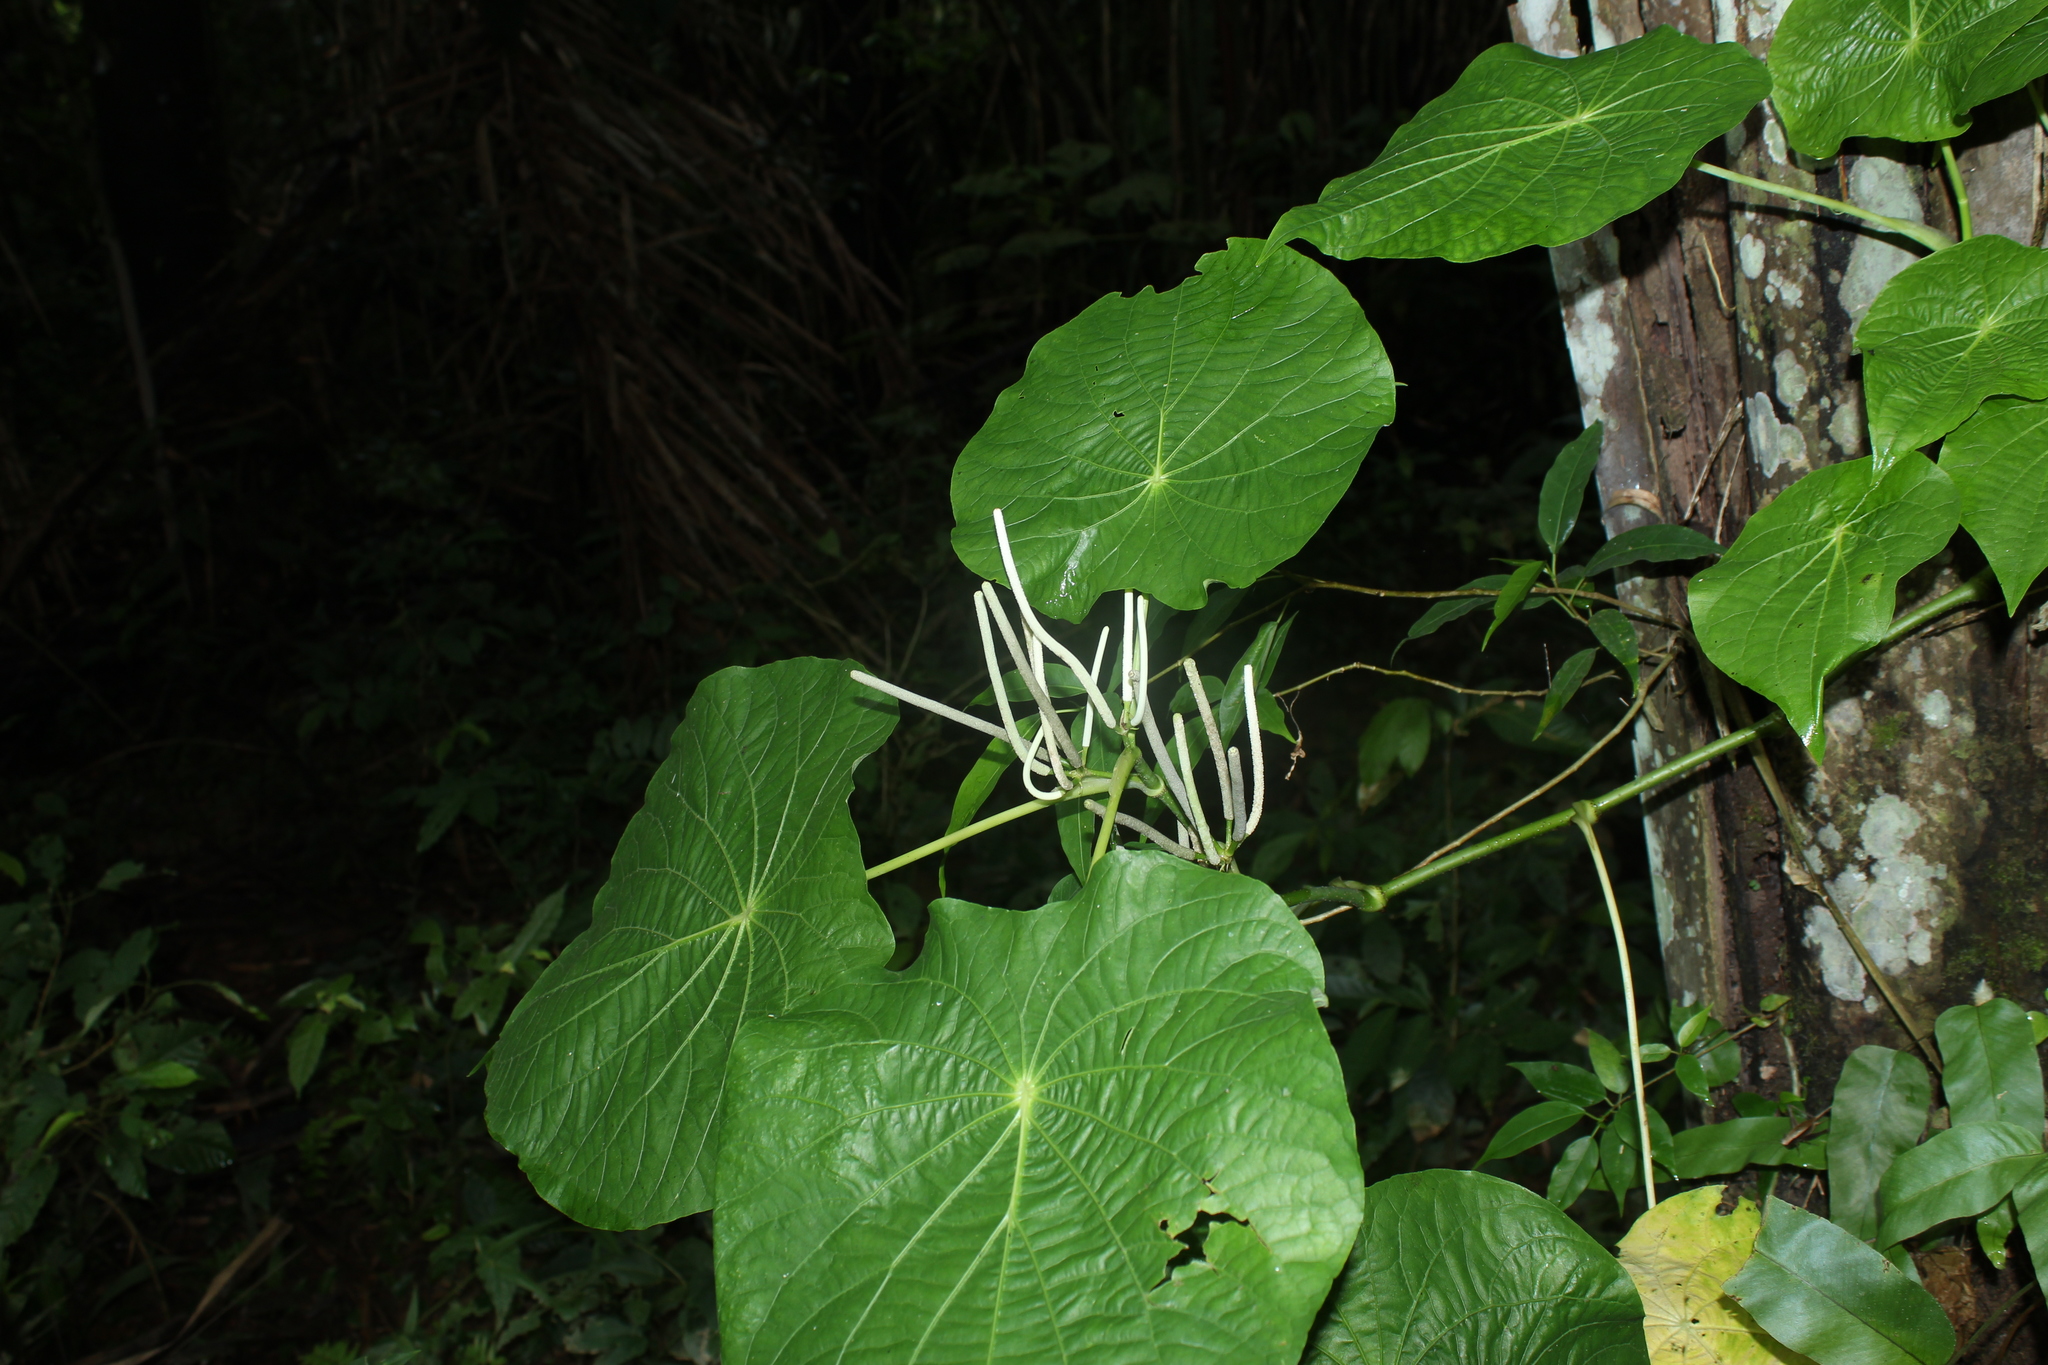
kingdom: Plantae
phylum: Tracheophyta
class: Magnoliopsida
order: Piperales
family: Piperaceae
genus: Piper
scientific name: Piper peltatum
